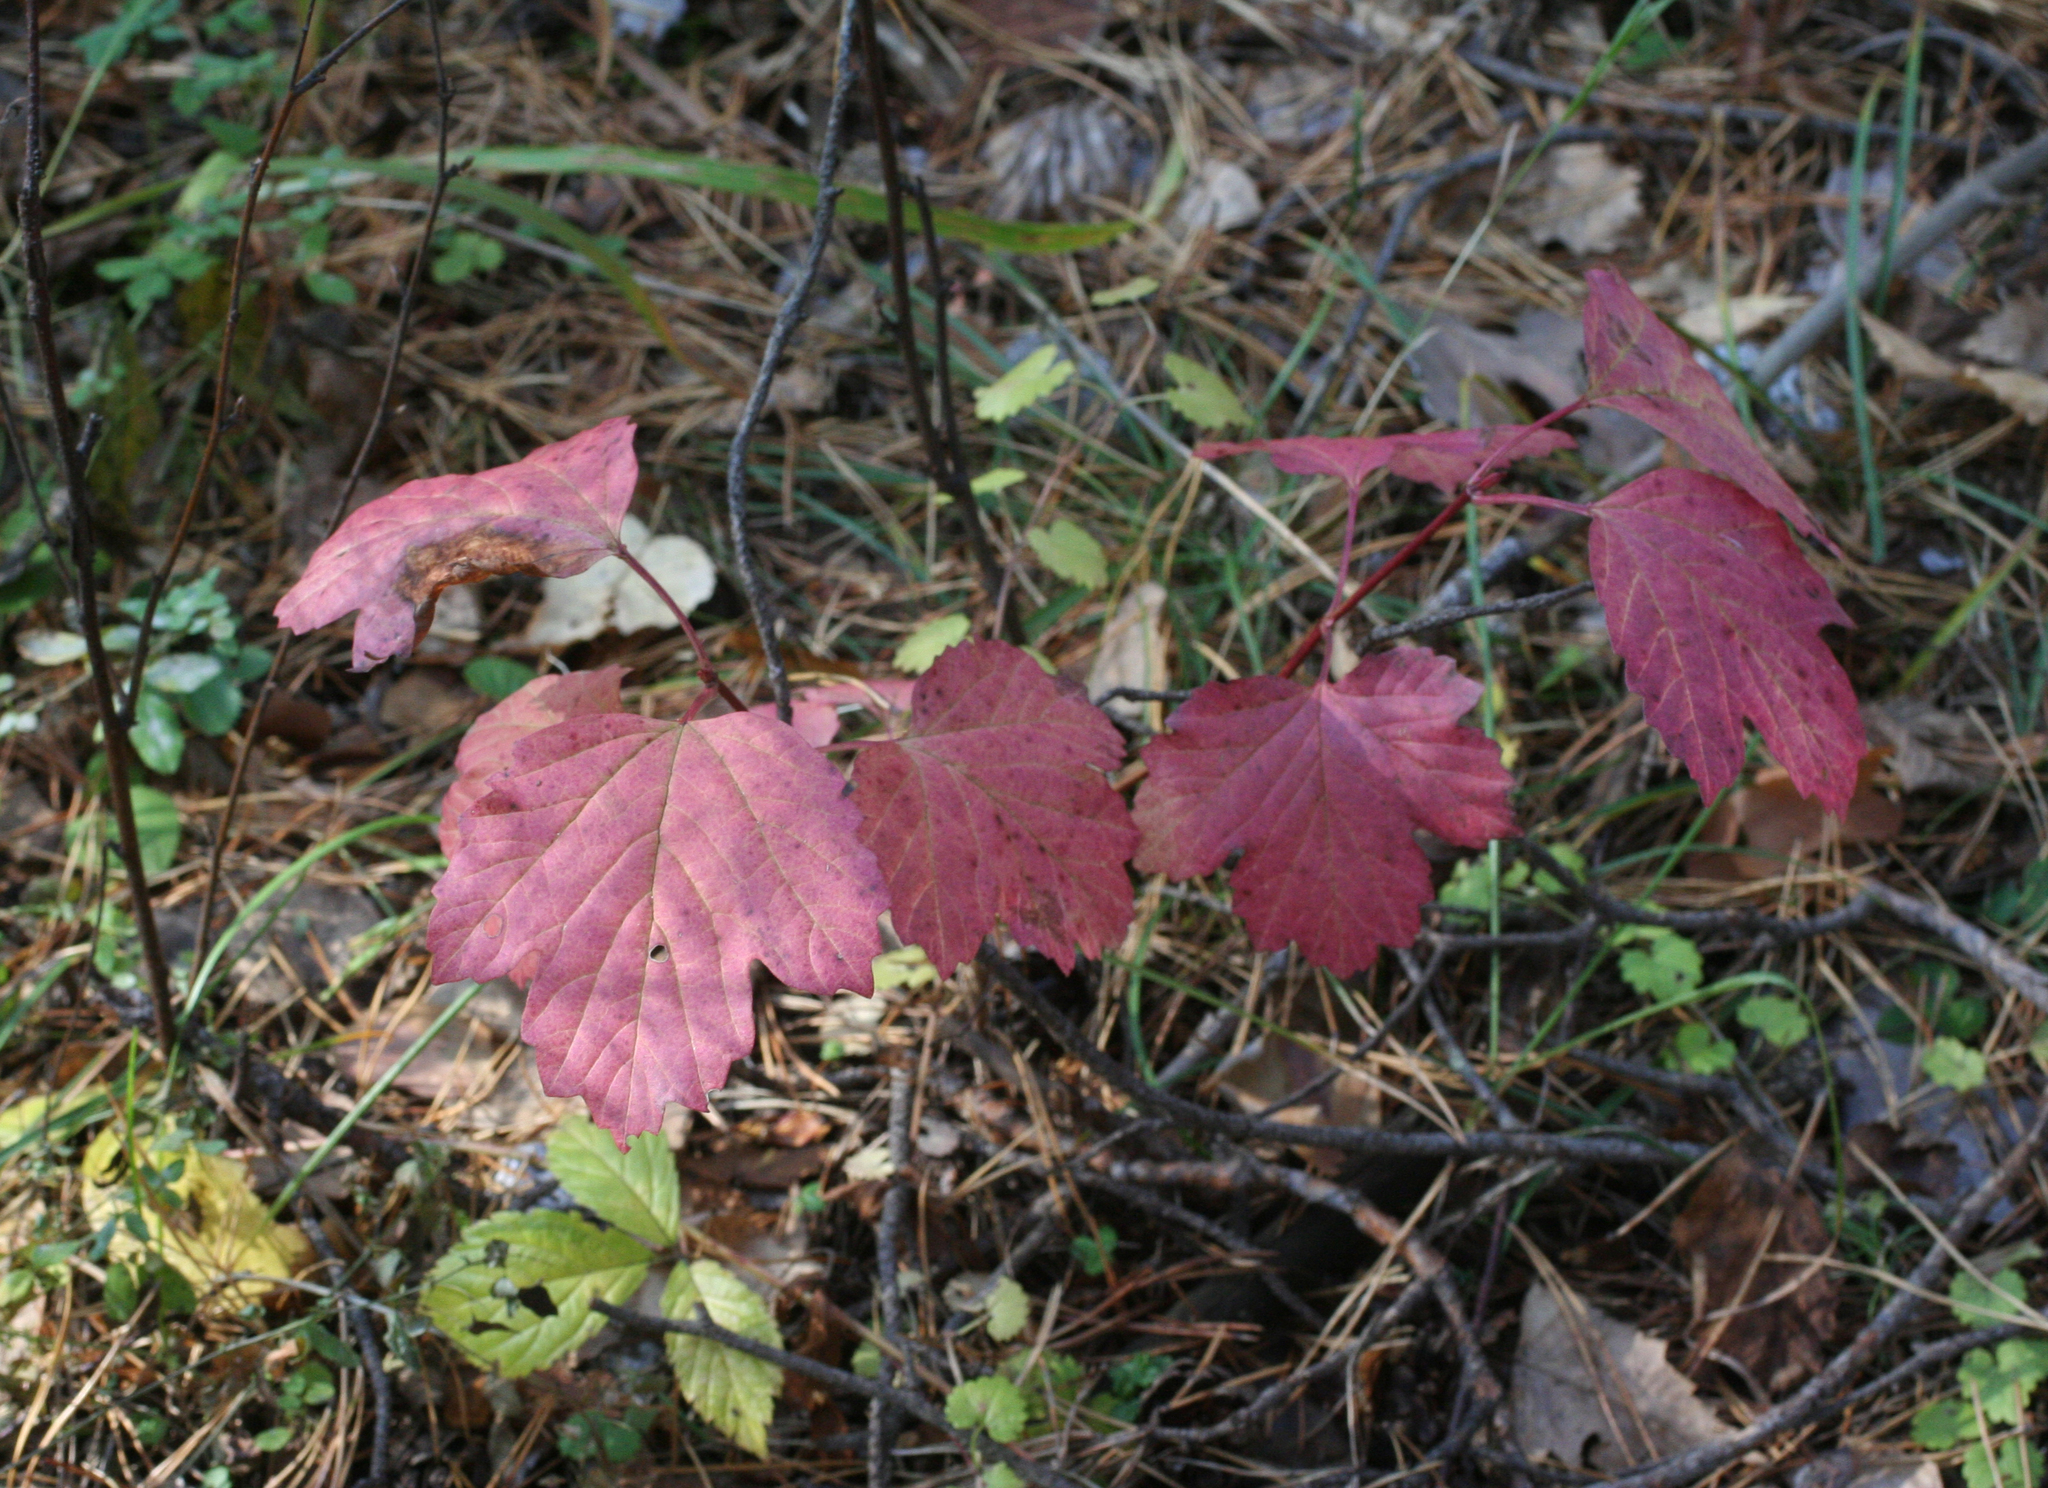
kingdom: Plantae
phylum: Tracheophyta
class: Magnoliopsida
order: Dipsacales
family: Viburnaceae
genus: Viburnum
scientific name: Viburnum opulus
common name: Guelder-rose
